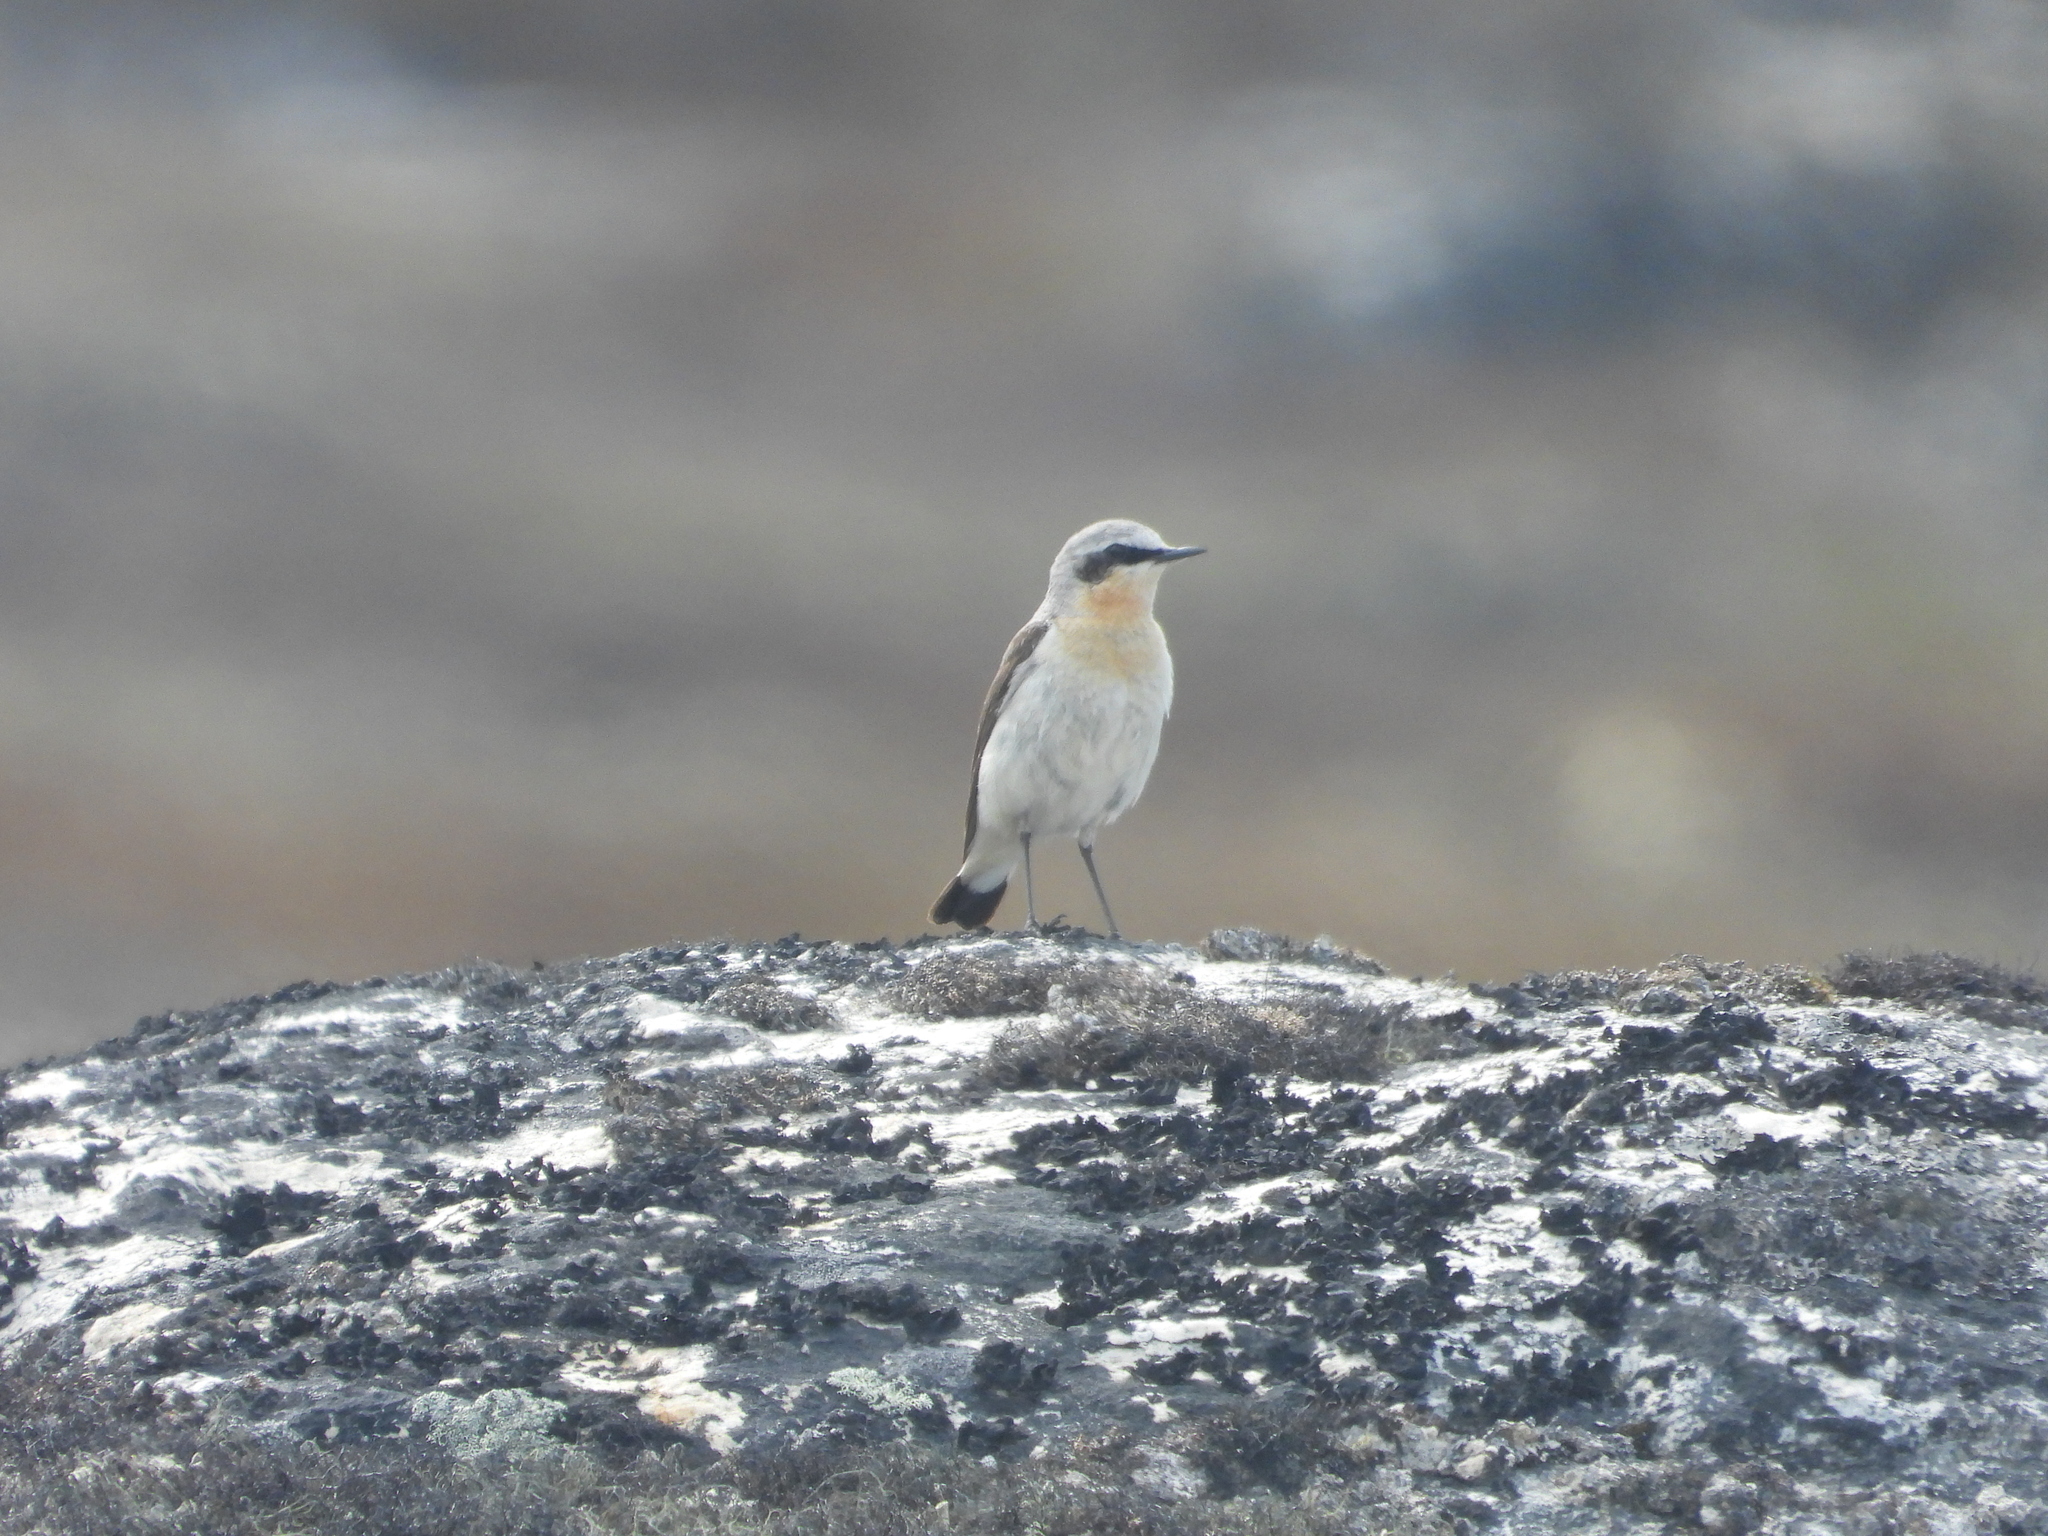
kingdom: Animalia
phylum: Chordata
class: Aves
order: Passeriformes
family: Muscicapidae
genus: Oenanthe
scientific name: Oenanthe oenanthe
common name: Northern wheatear
